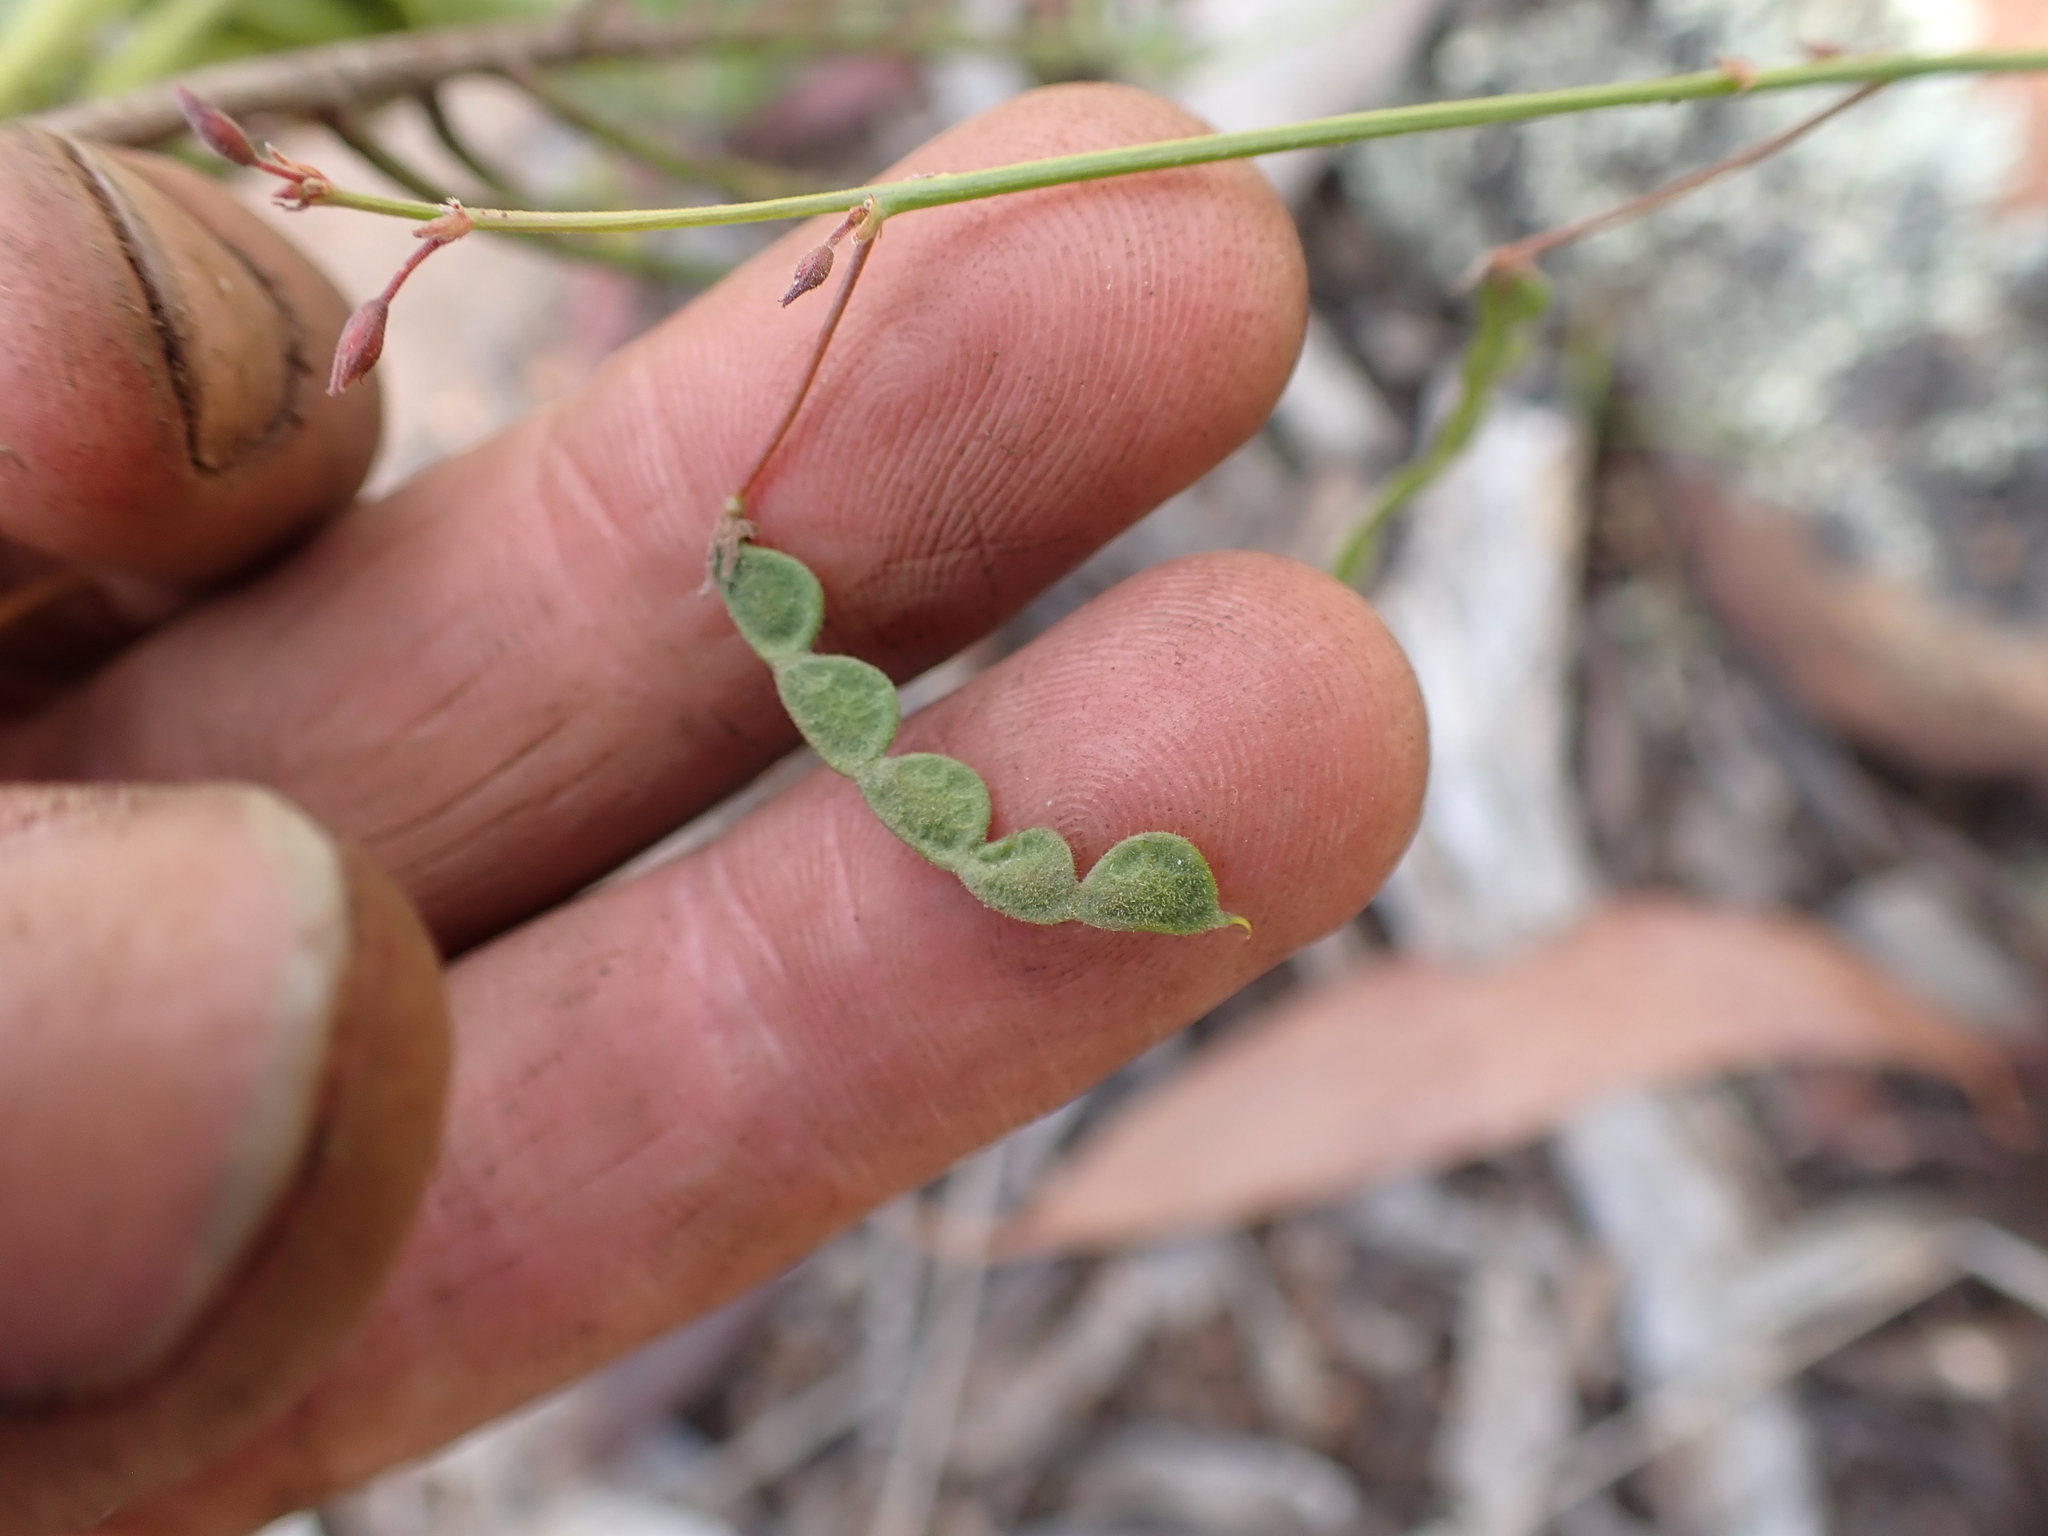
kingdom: Plantae
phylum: Tracheophyta
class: Magnoliopsida
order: Fabales
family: Fabaceae
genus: Grona
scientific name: Grona varians
